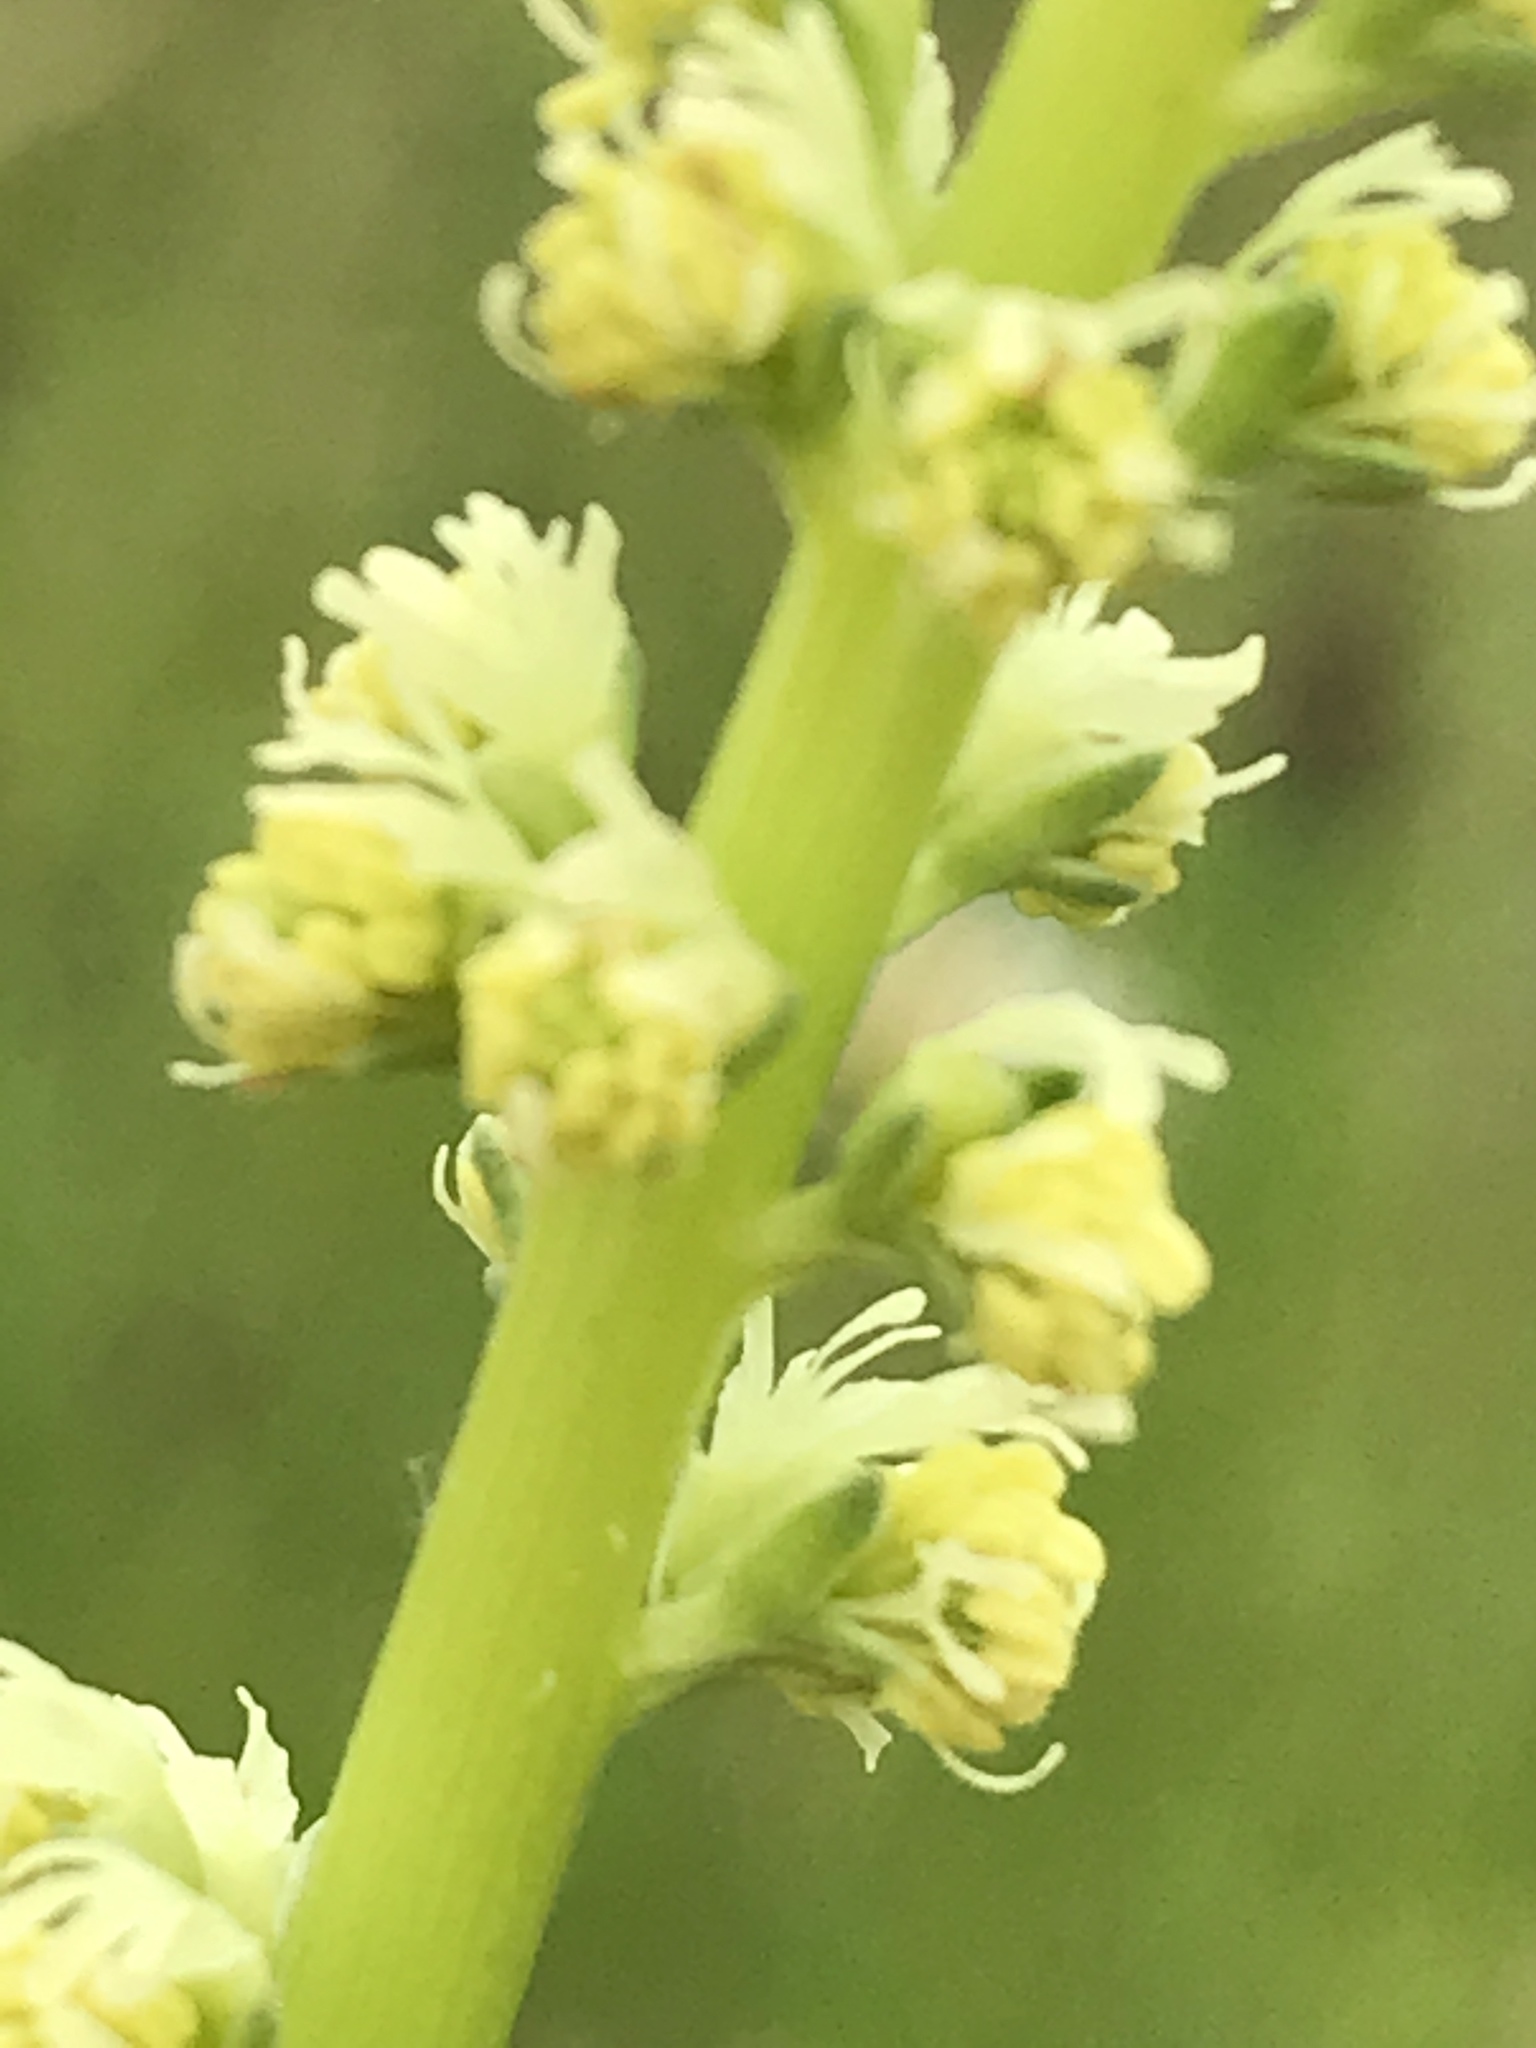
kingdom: Plantae
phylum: Tracheophyta
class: Magnoliopsida
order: Brassicales
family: Resedaceae
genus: Reseda
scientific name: Reseda luteola
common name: Weld
